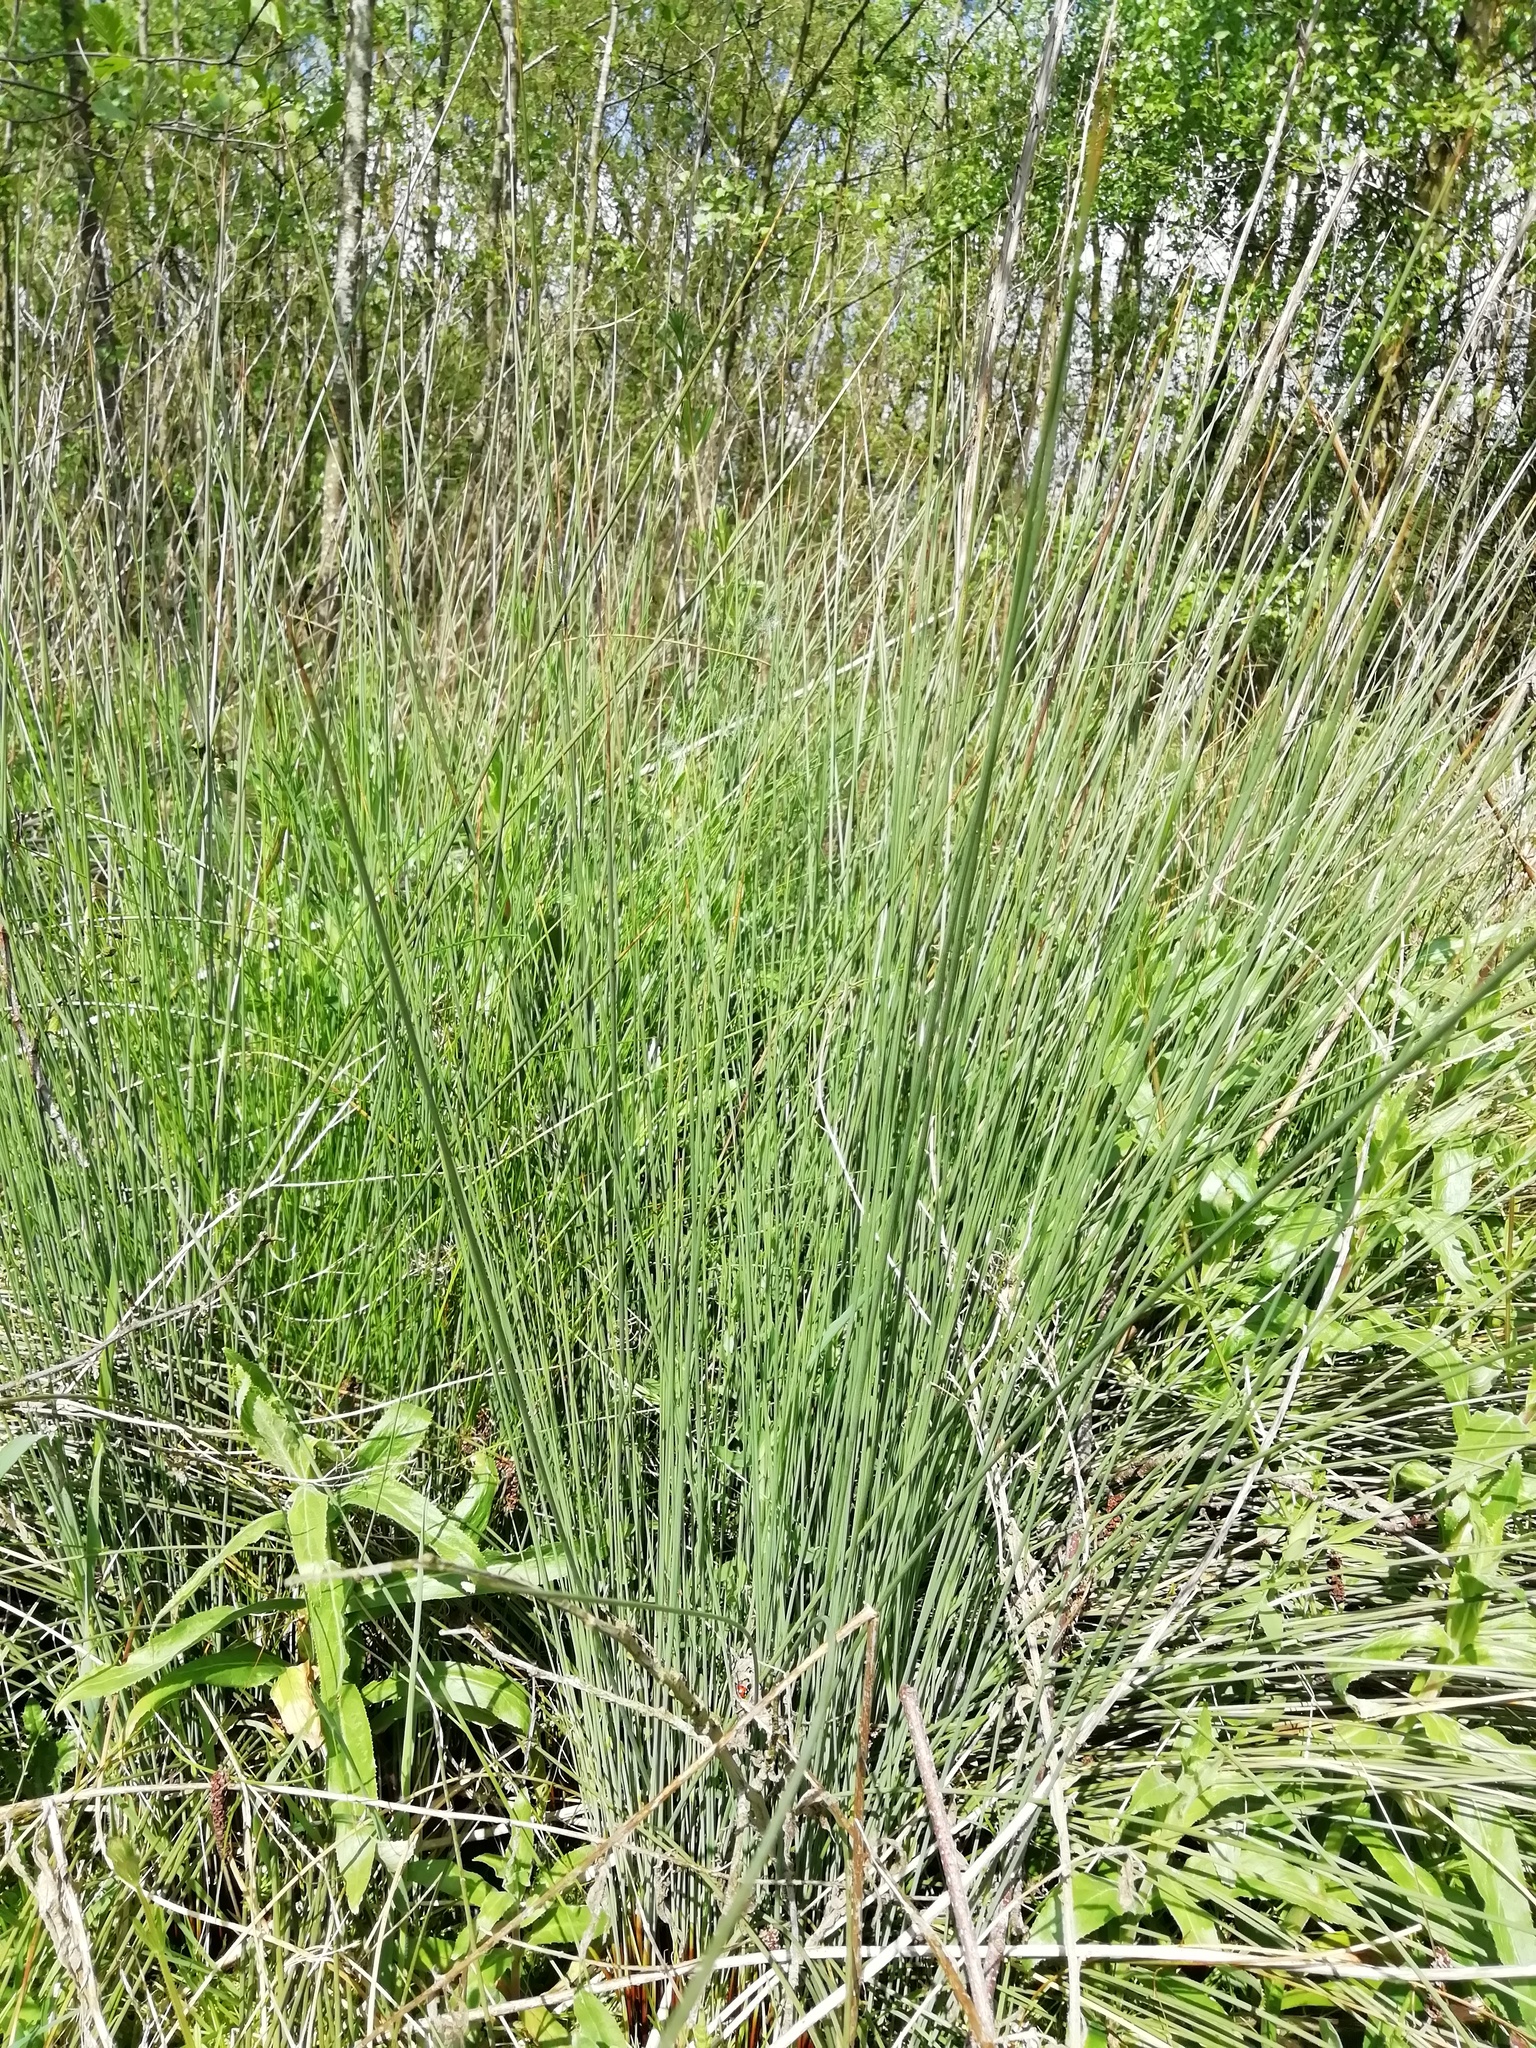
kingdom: Plantae
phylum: Tracheophyta
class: Liliopsida
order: Poales
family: Juncaceae
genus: Juncus
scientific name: Juncus inflexus
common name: Hard rush
